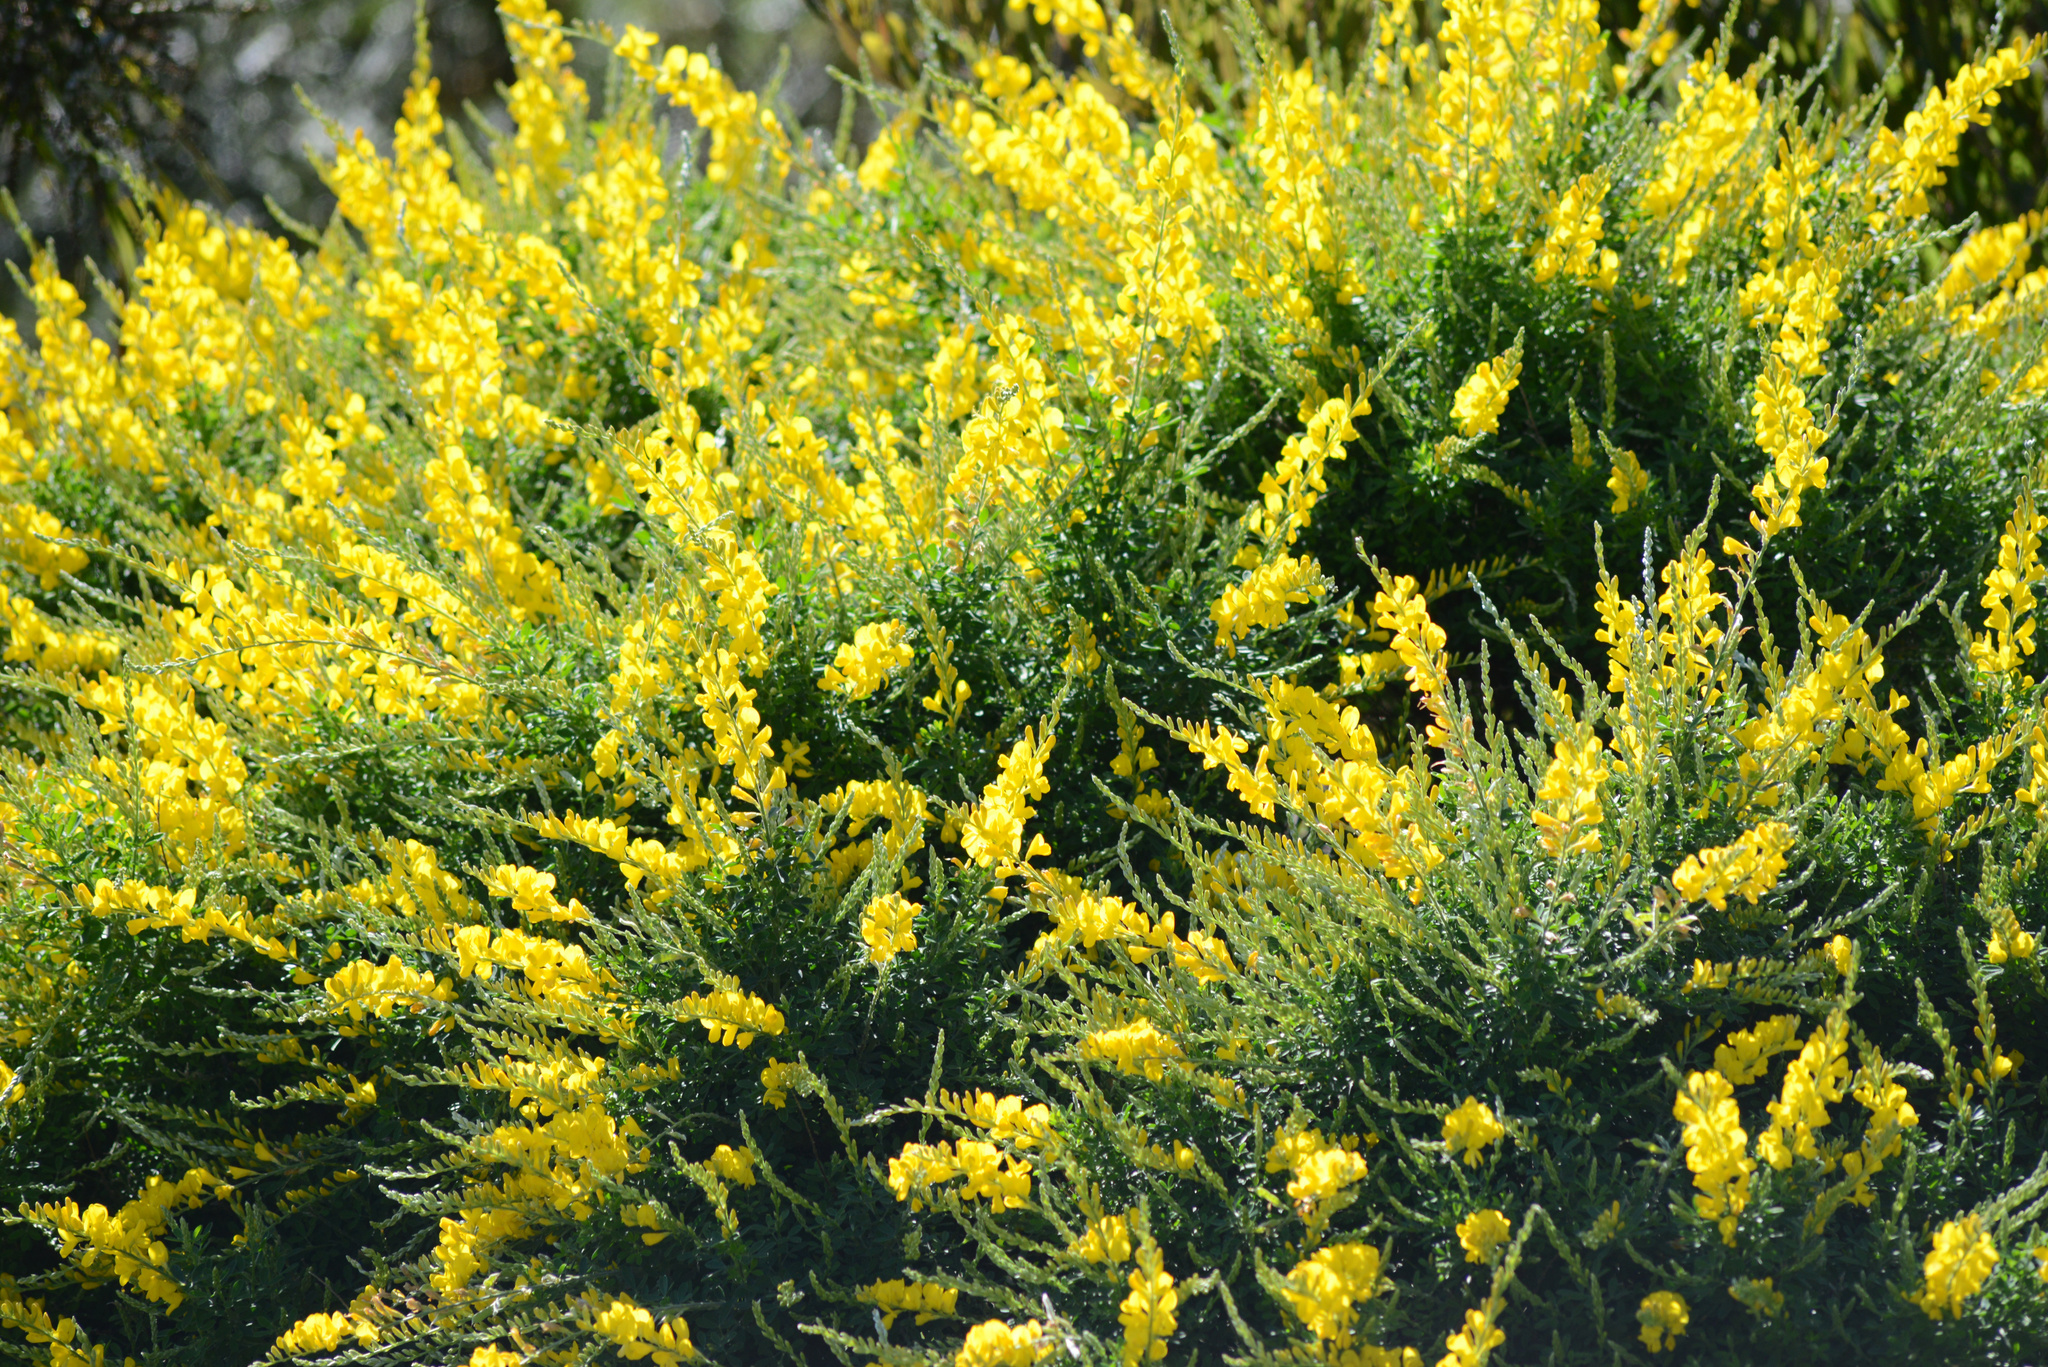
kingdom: Plantae
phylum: Tracheophyta
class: Magnoliopsida
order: Fabales
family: Fabaceae
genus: Genista
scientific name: Genista stenopetala
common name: Leafy broom
